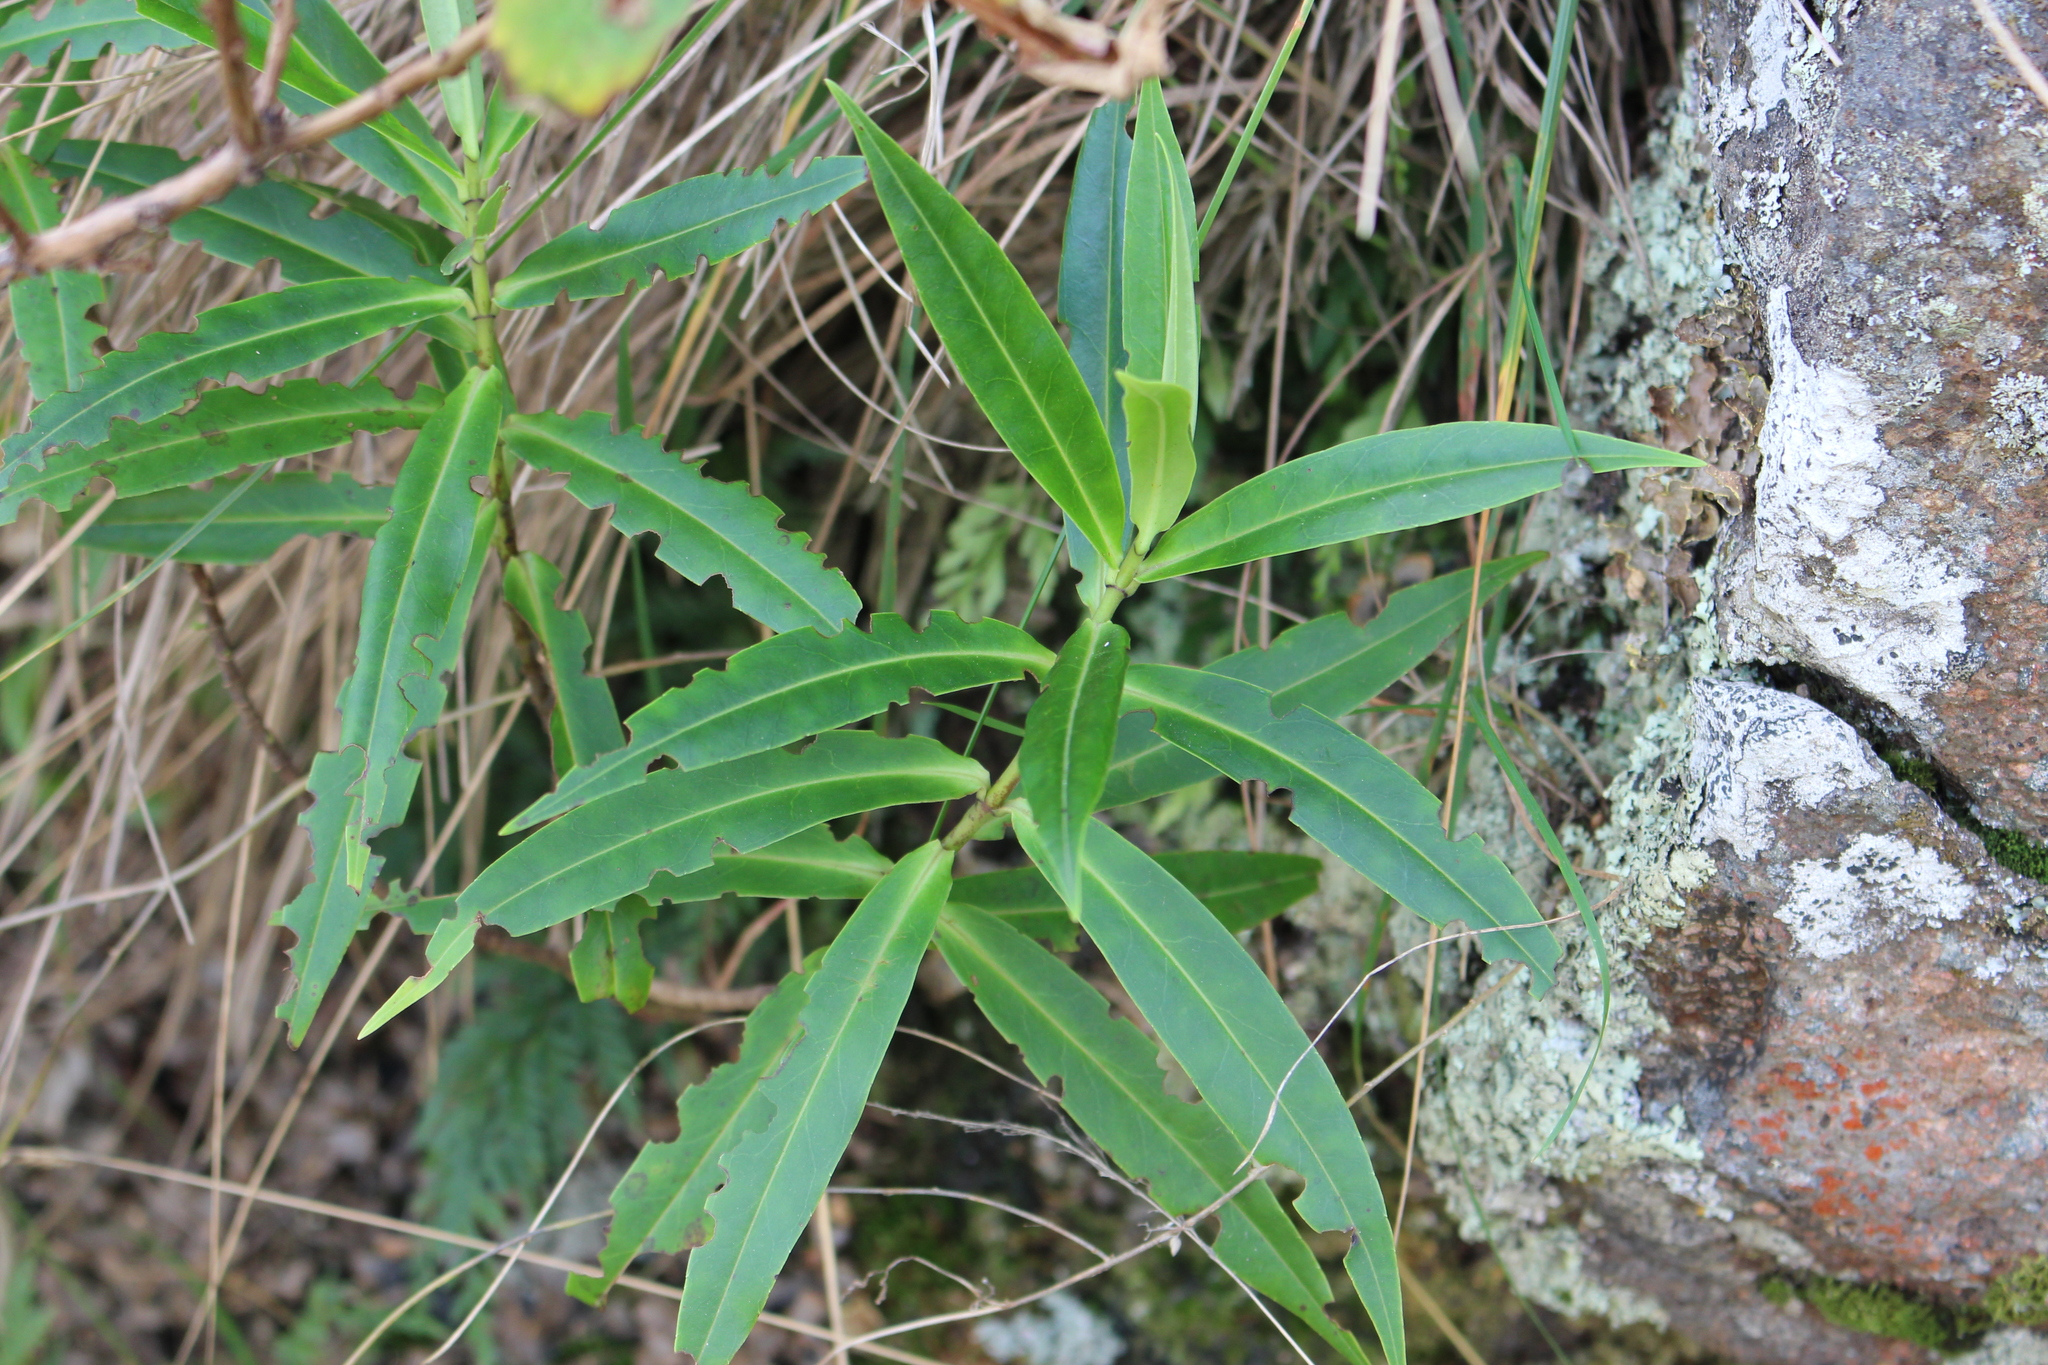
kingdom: Plantae
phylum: Tracheophyta
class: Magnoliopsida
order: Lamiales
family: Plantaginaceae
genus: Veronica
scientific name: Veronica salicifolia
